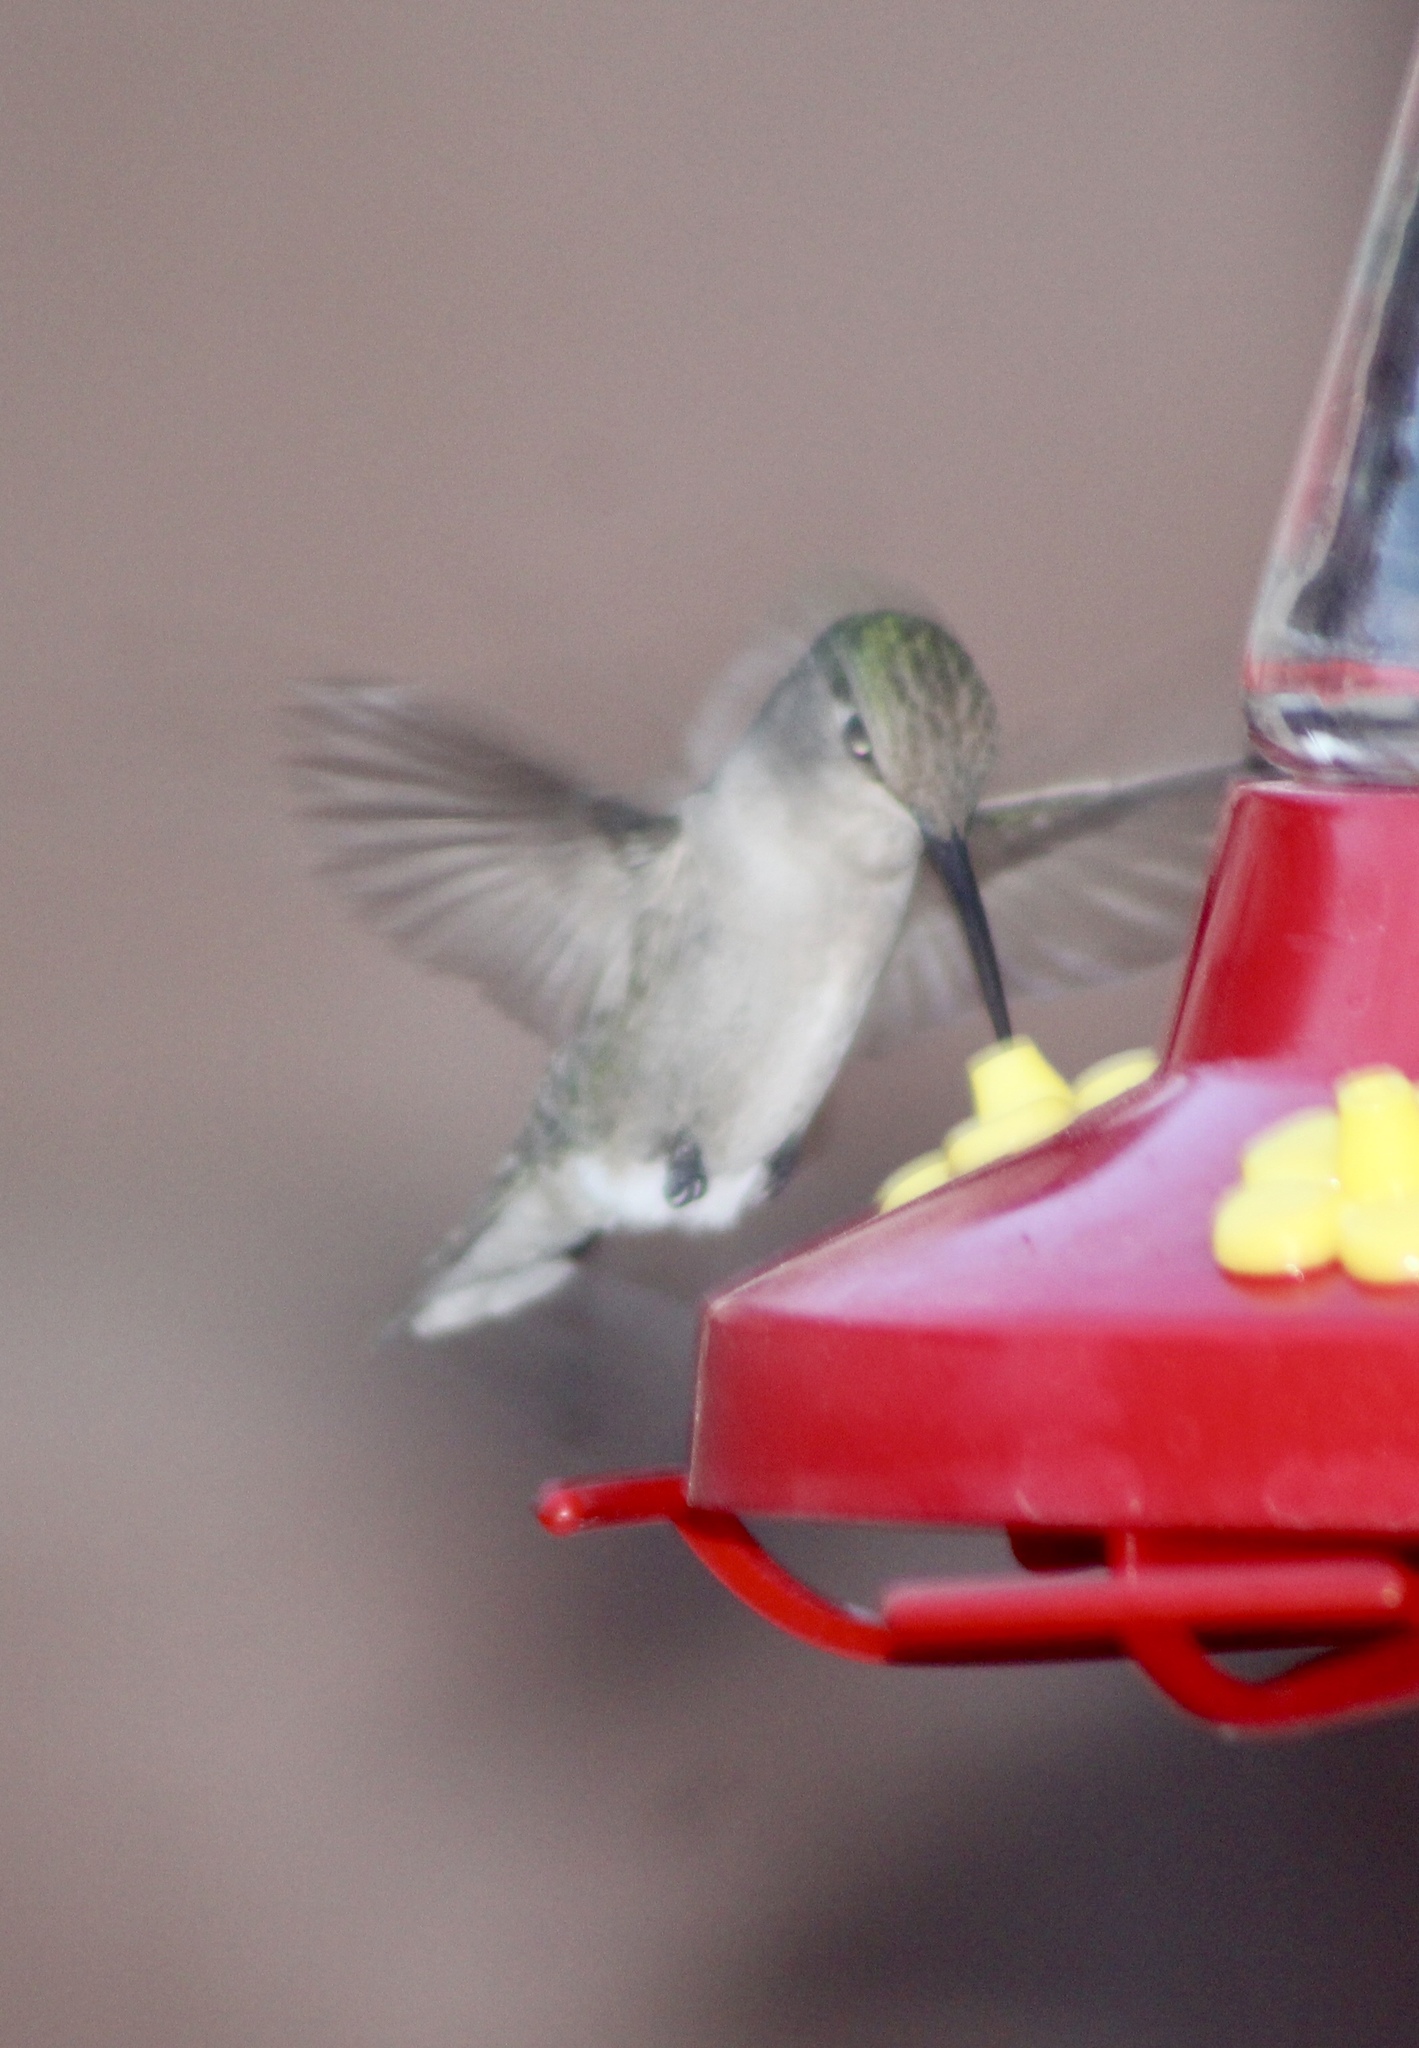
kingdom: Animalia
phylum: Chordata
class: Aves
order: Apodiformes
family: Trochilidae
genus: Archilochus
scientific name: Archilochus alexandri
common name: Black-chinned hummingbird
